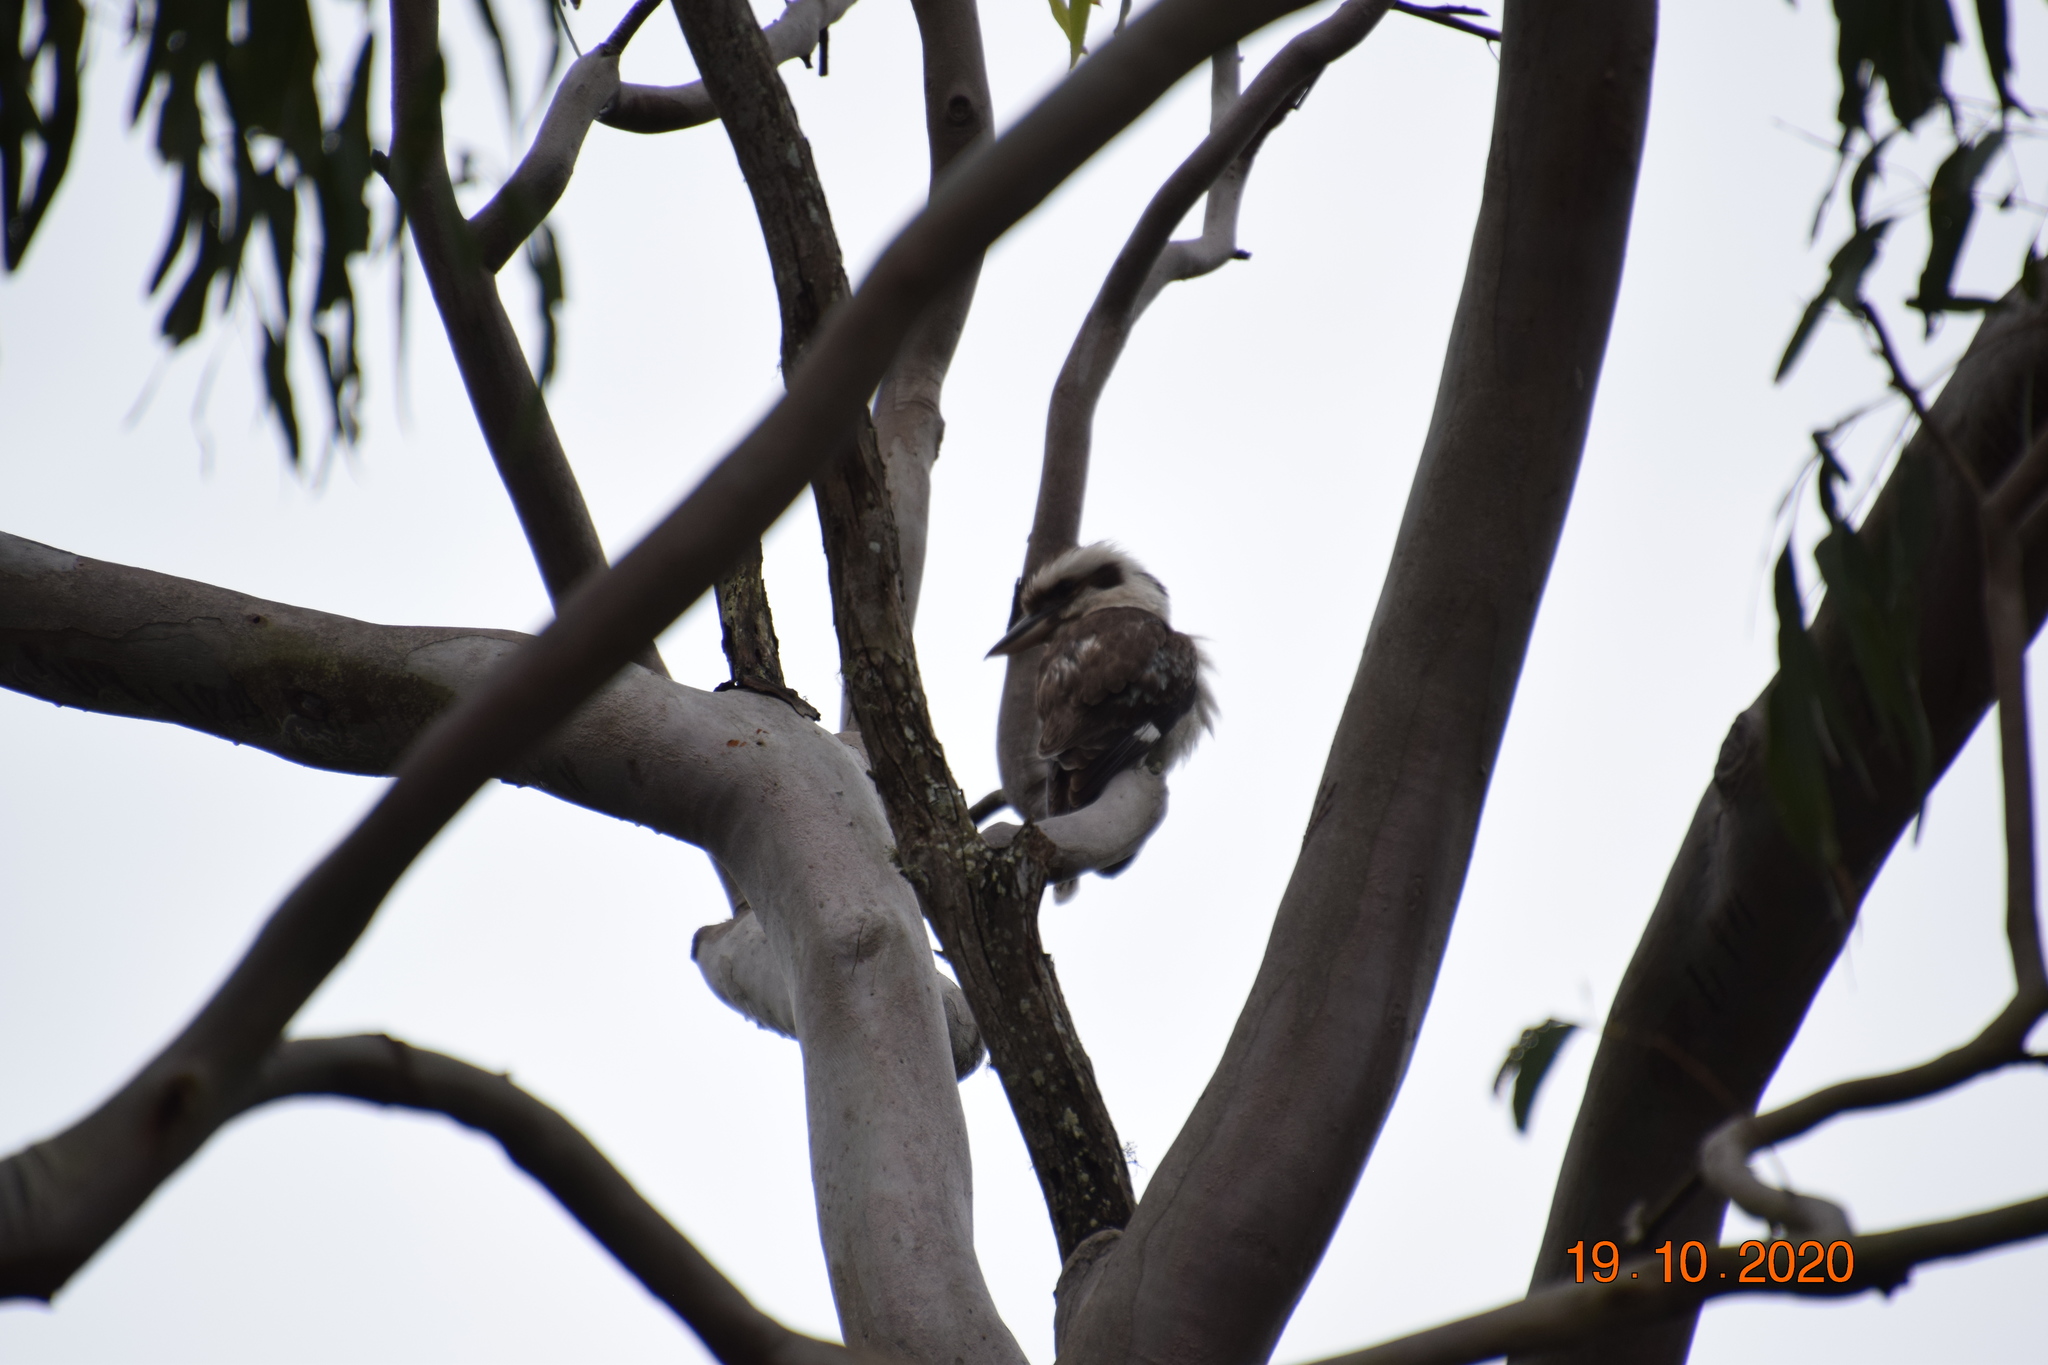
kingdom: Animalia
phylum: Chordata
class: Aves
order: Coraciiformes
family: Alcedinidae
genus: Dacelo
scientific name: Dacelo novaeguineae
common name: Laughing kookaburra
